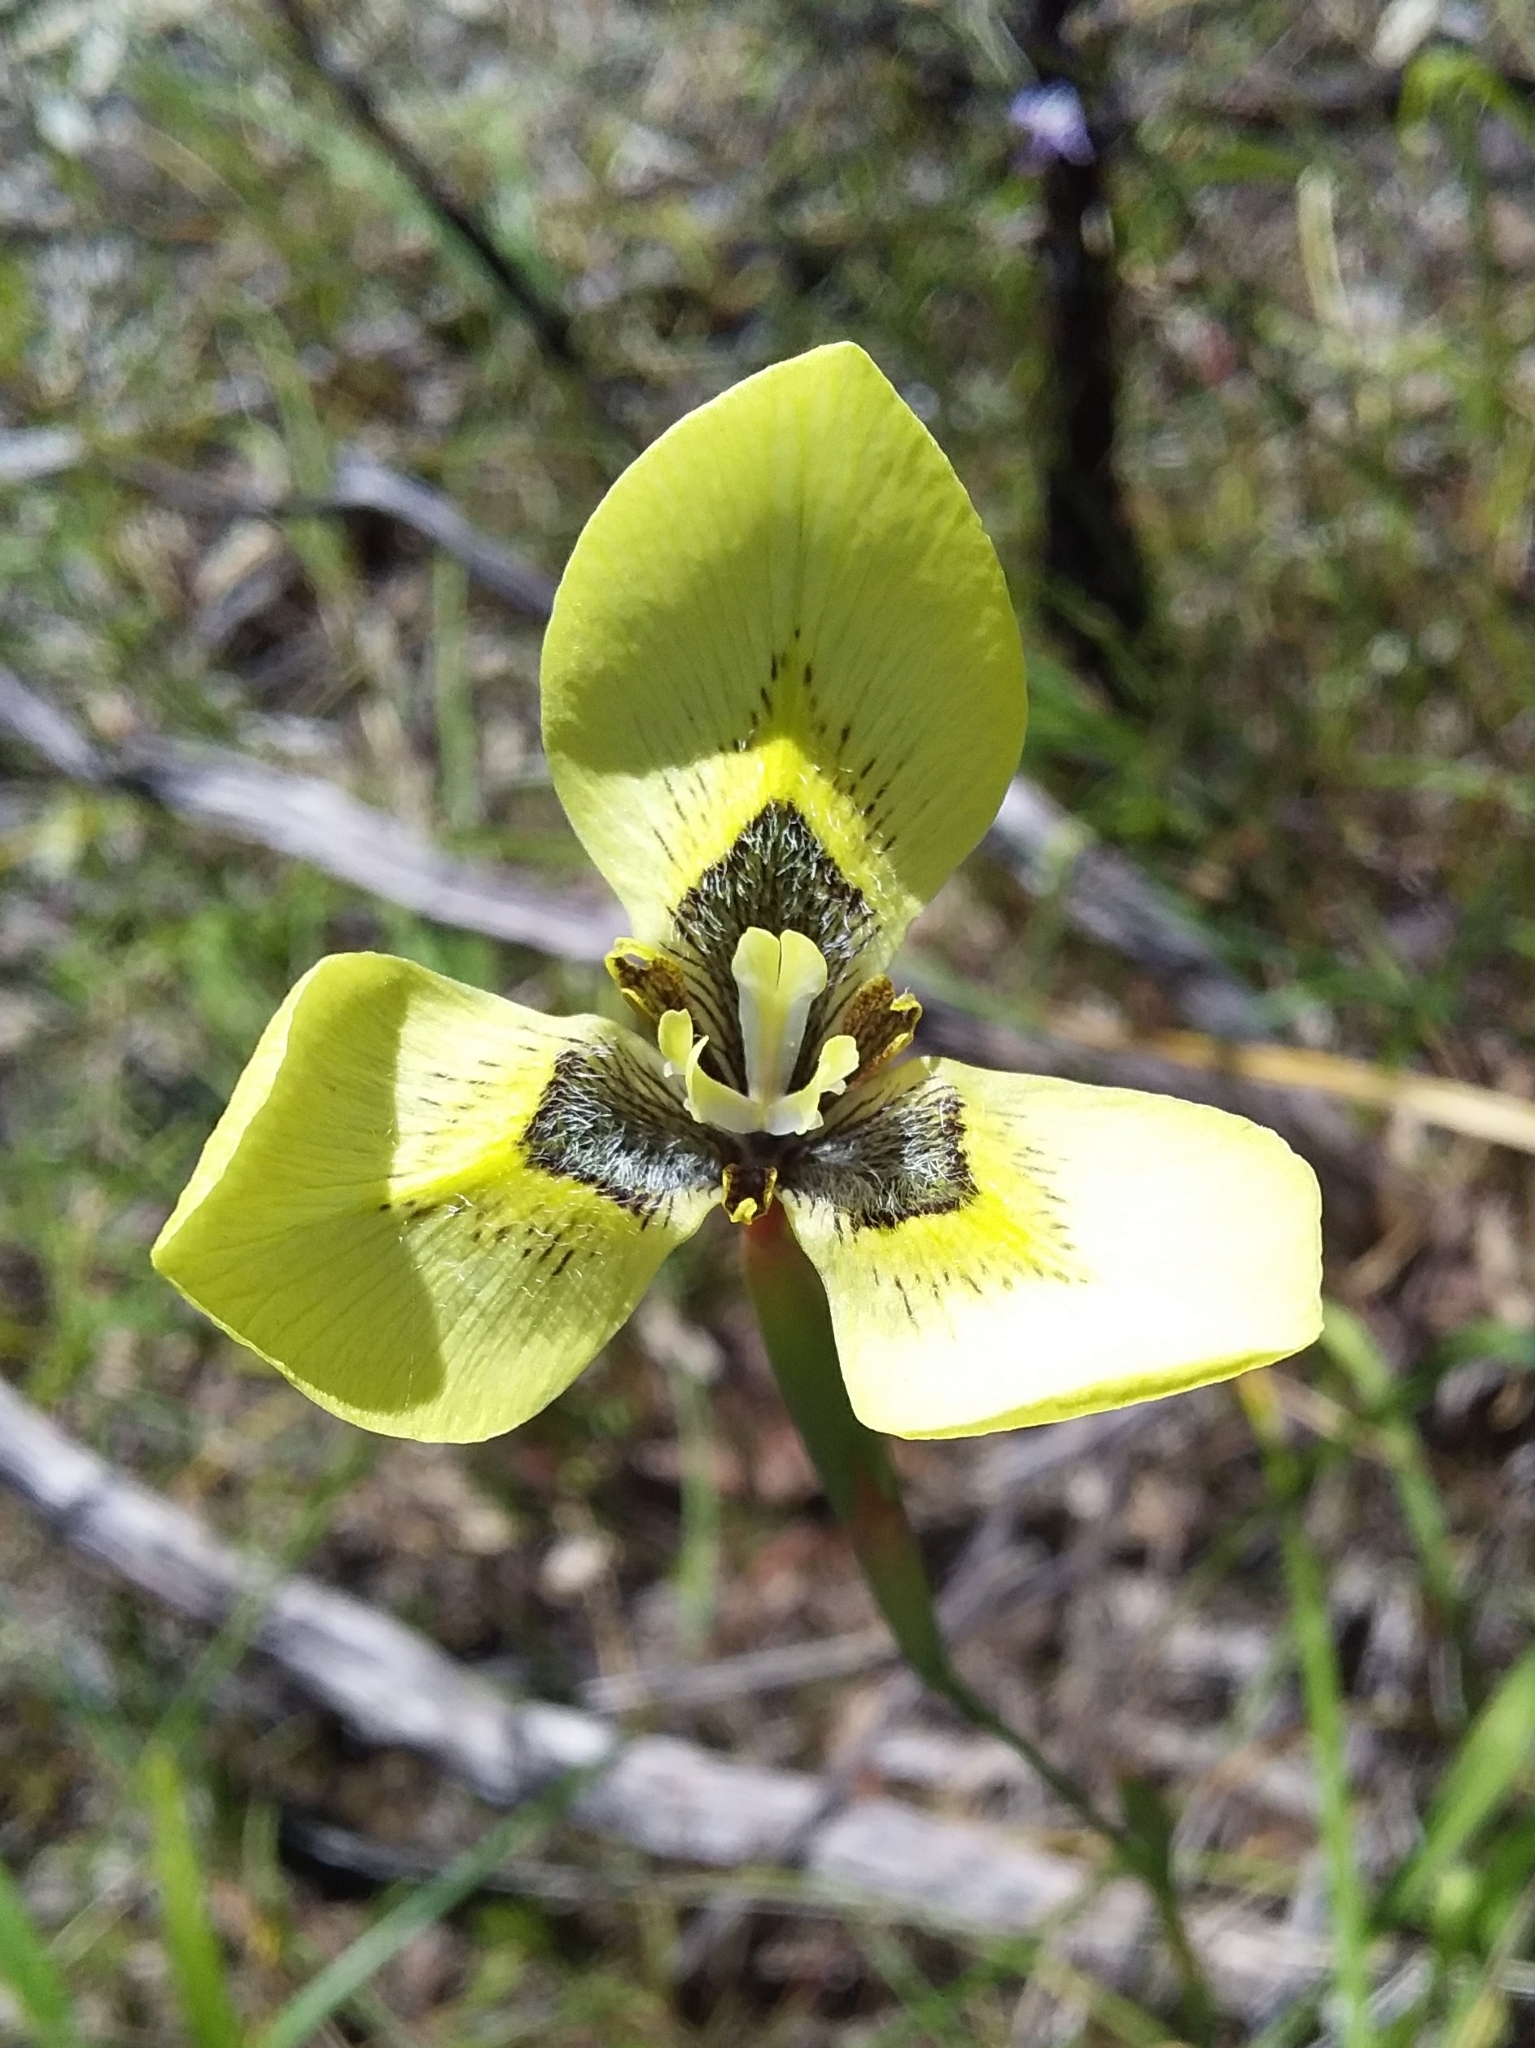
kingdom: Plantae
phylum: Tracheophyta
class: Liliopsida
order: Asparagales
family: Iridaceae
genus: Moraea
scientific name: Moraea bellendenii
